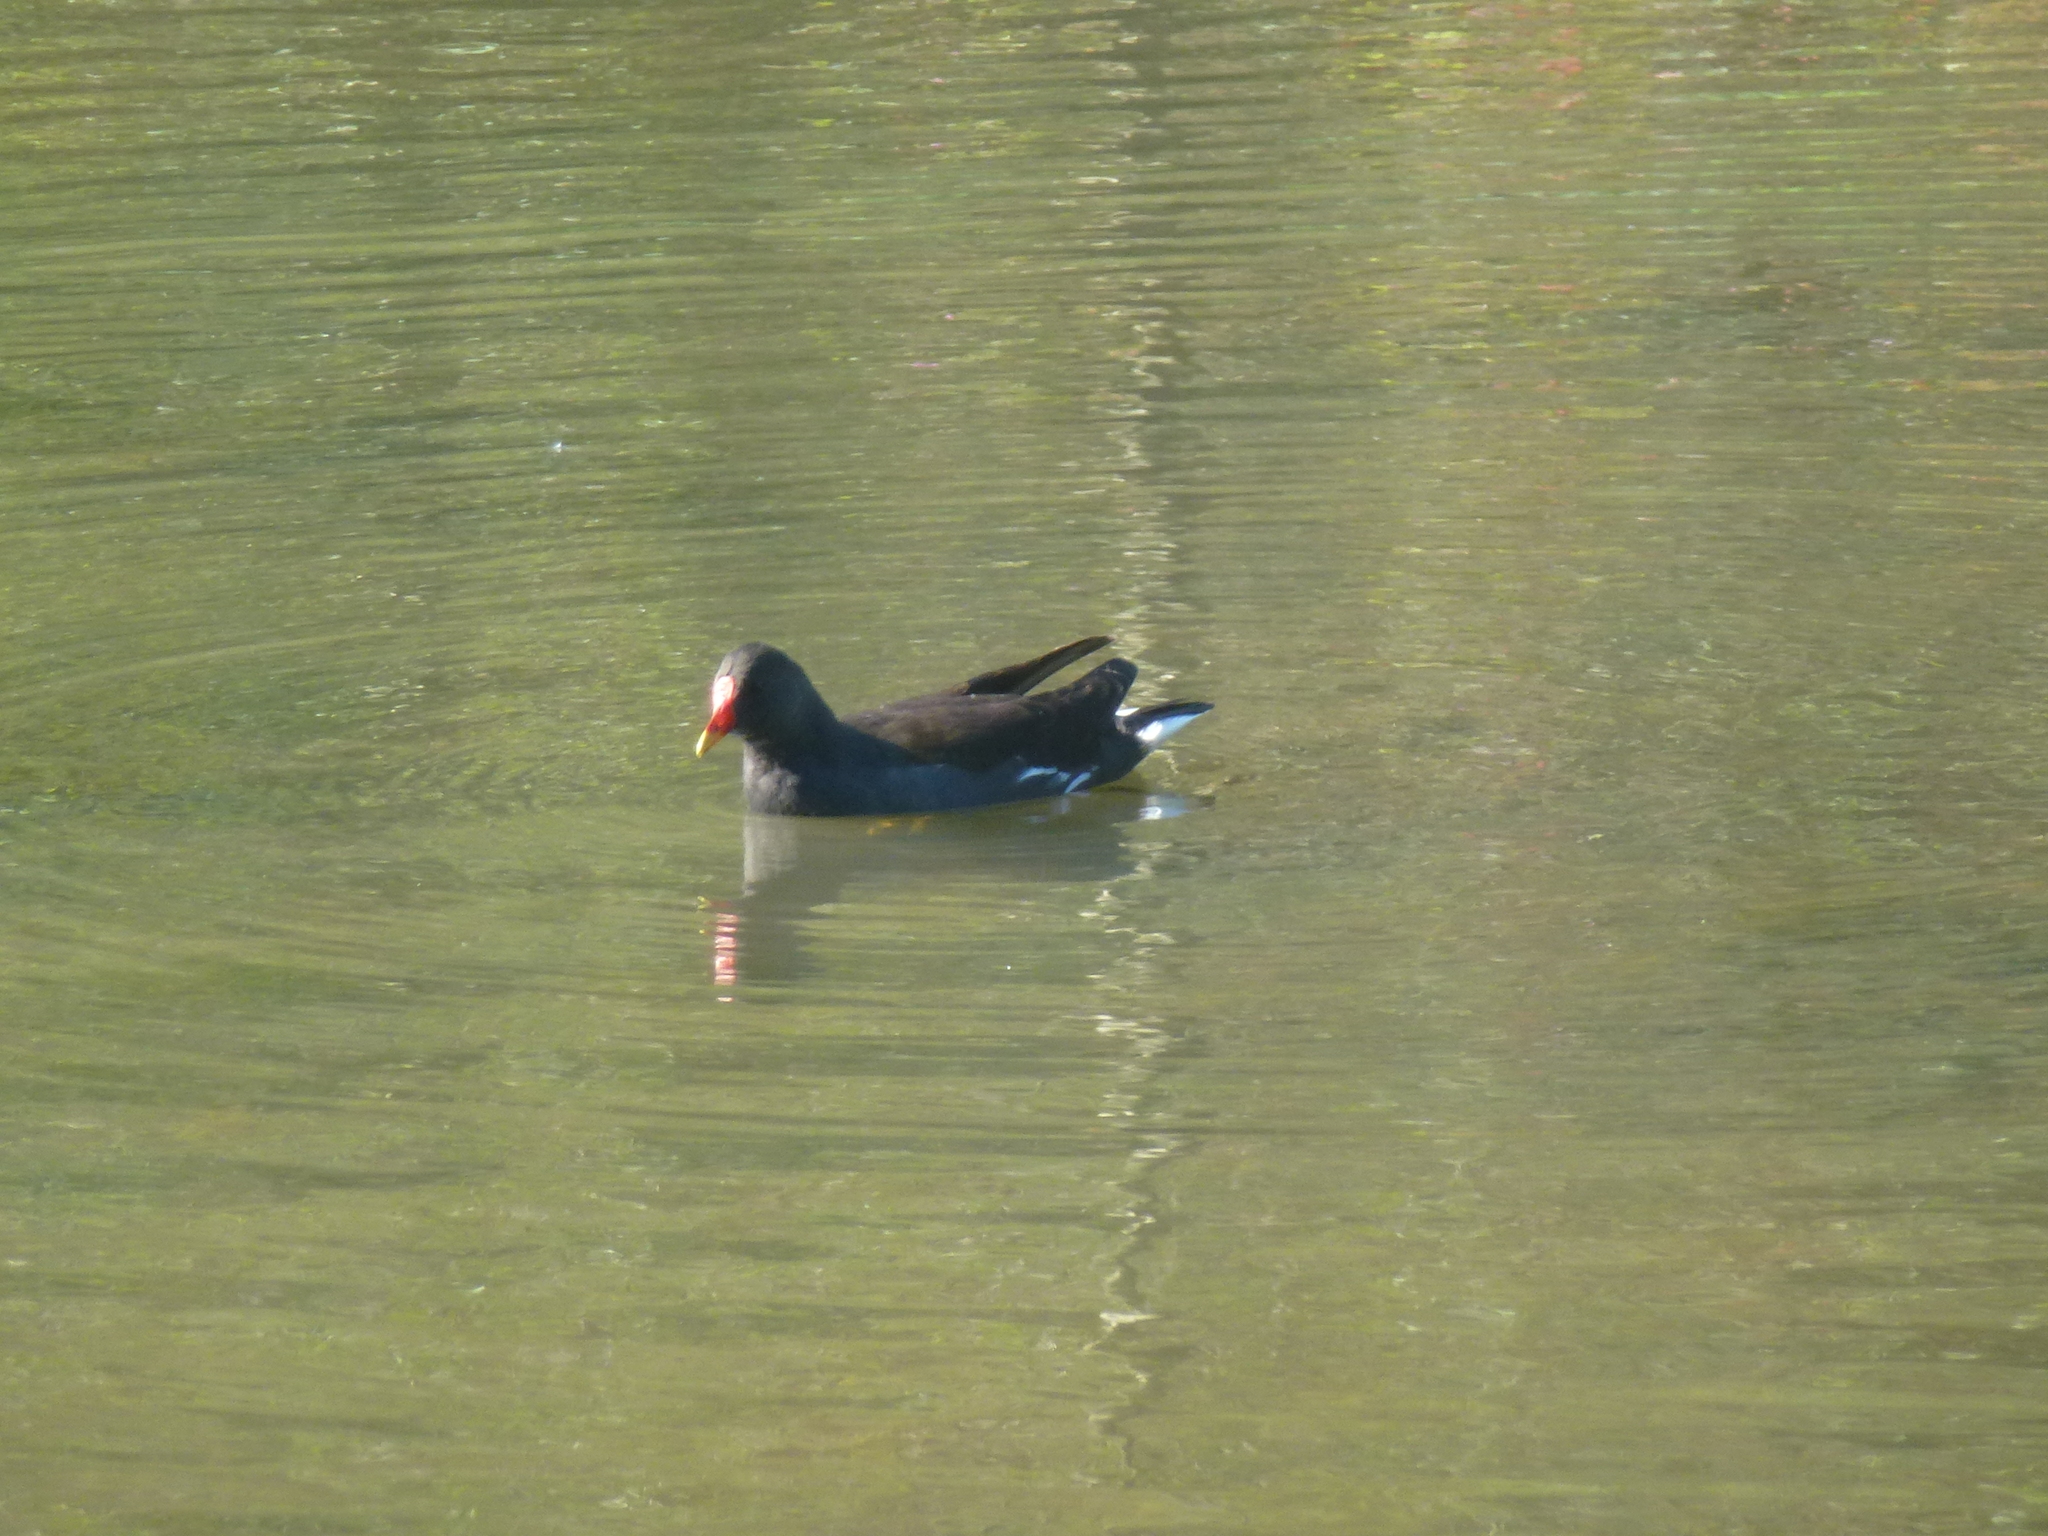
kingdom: Animalia
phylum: Chordata
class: Aves
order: Gruiformes
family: Rallidae
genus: Gallinula
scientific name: Gallinula chloropus
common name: Common moorhen
